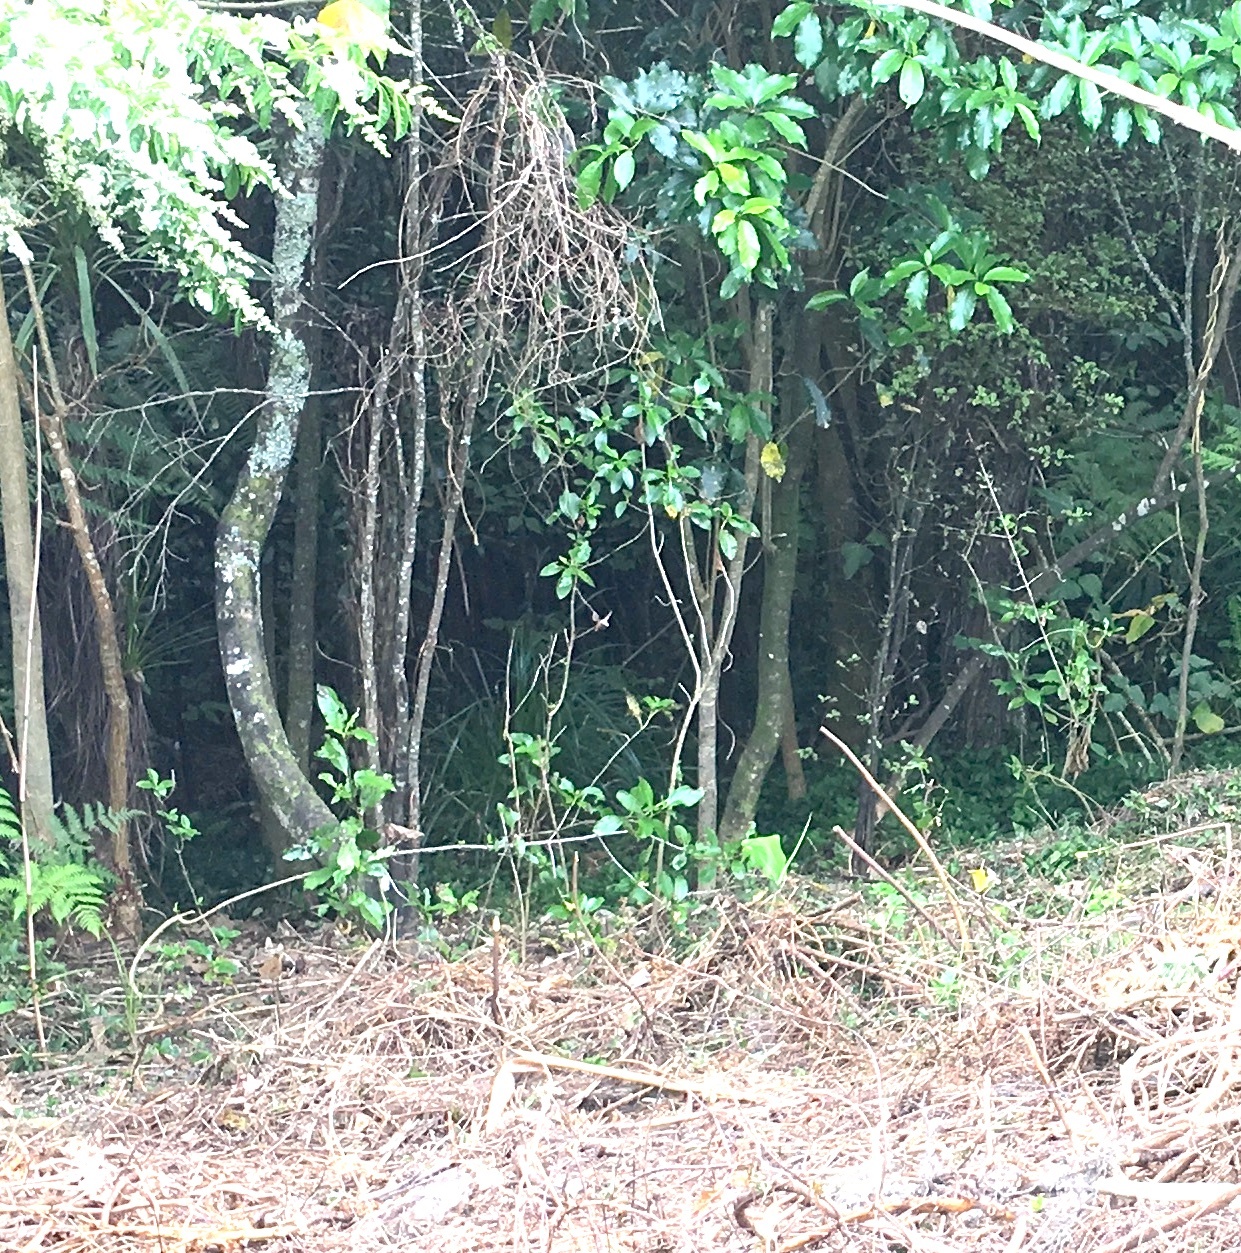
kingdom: Plantae
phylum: Tracheophyta
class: Magnoliopsida
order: Ericales
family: Primulaceae
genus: Myrsine
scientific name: Myrsine australis
